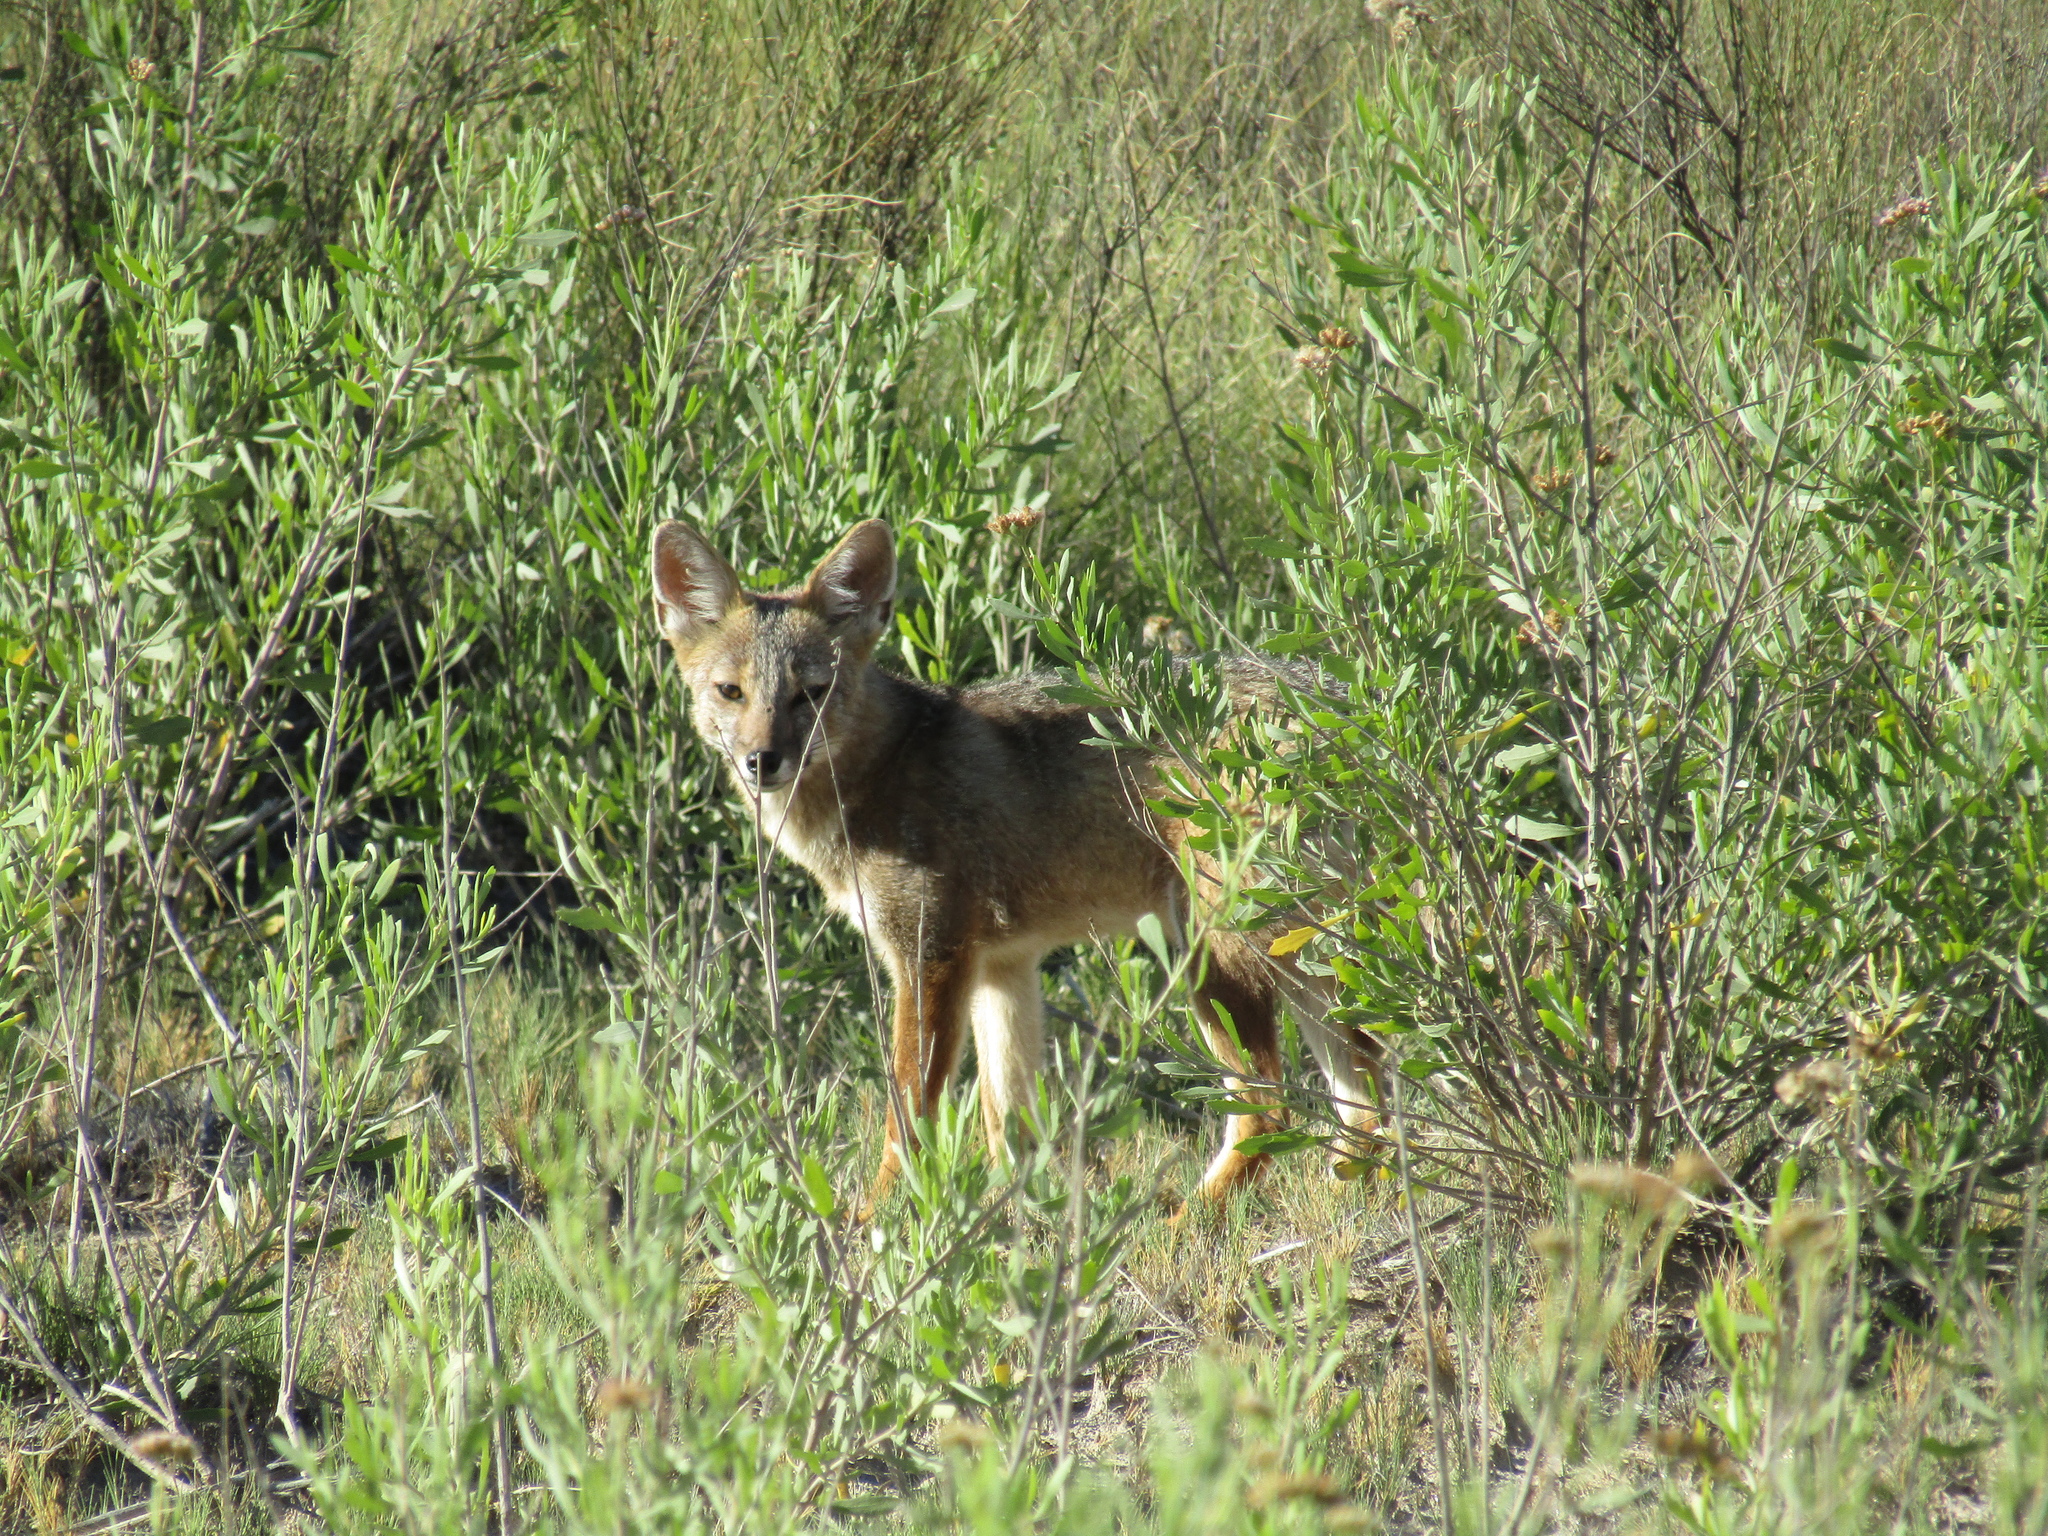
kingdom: Animalia
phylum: Chordata
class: Mammalia
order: Carnivora
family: Canidae
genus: Lycalopex
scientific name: Lycalopex culpaeus
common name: Culpeo
